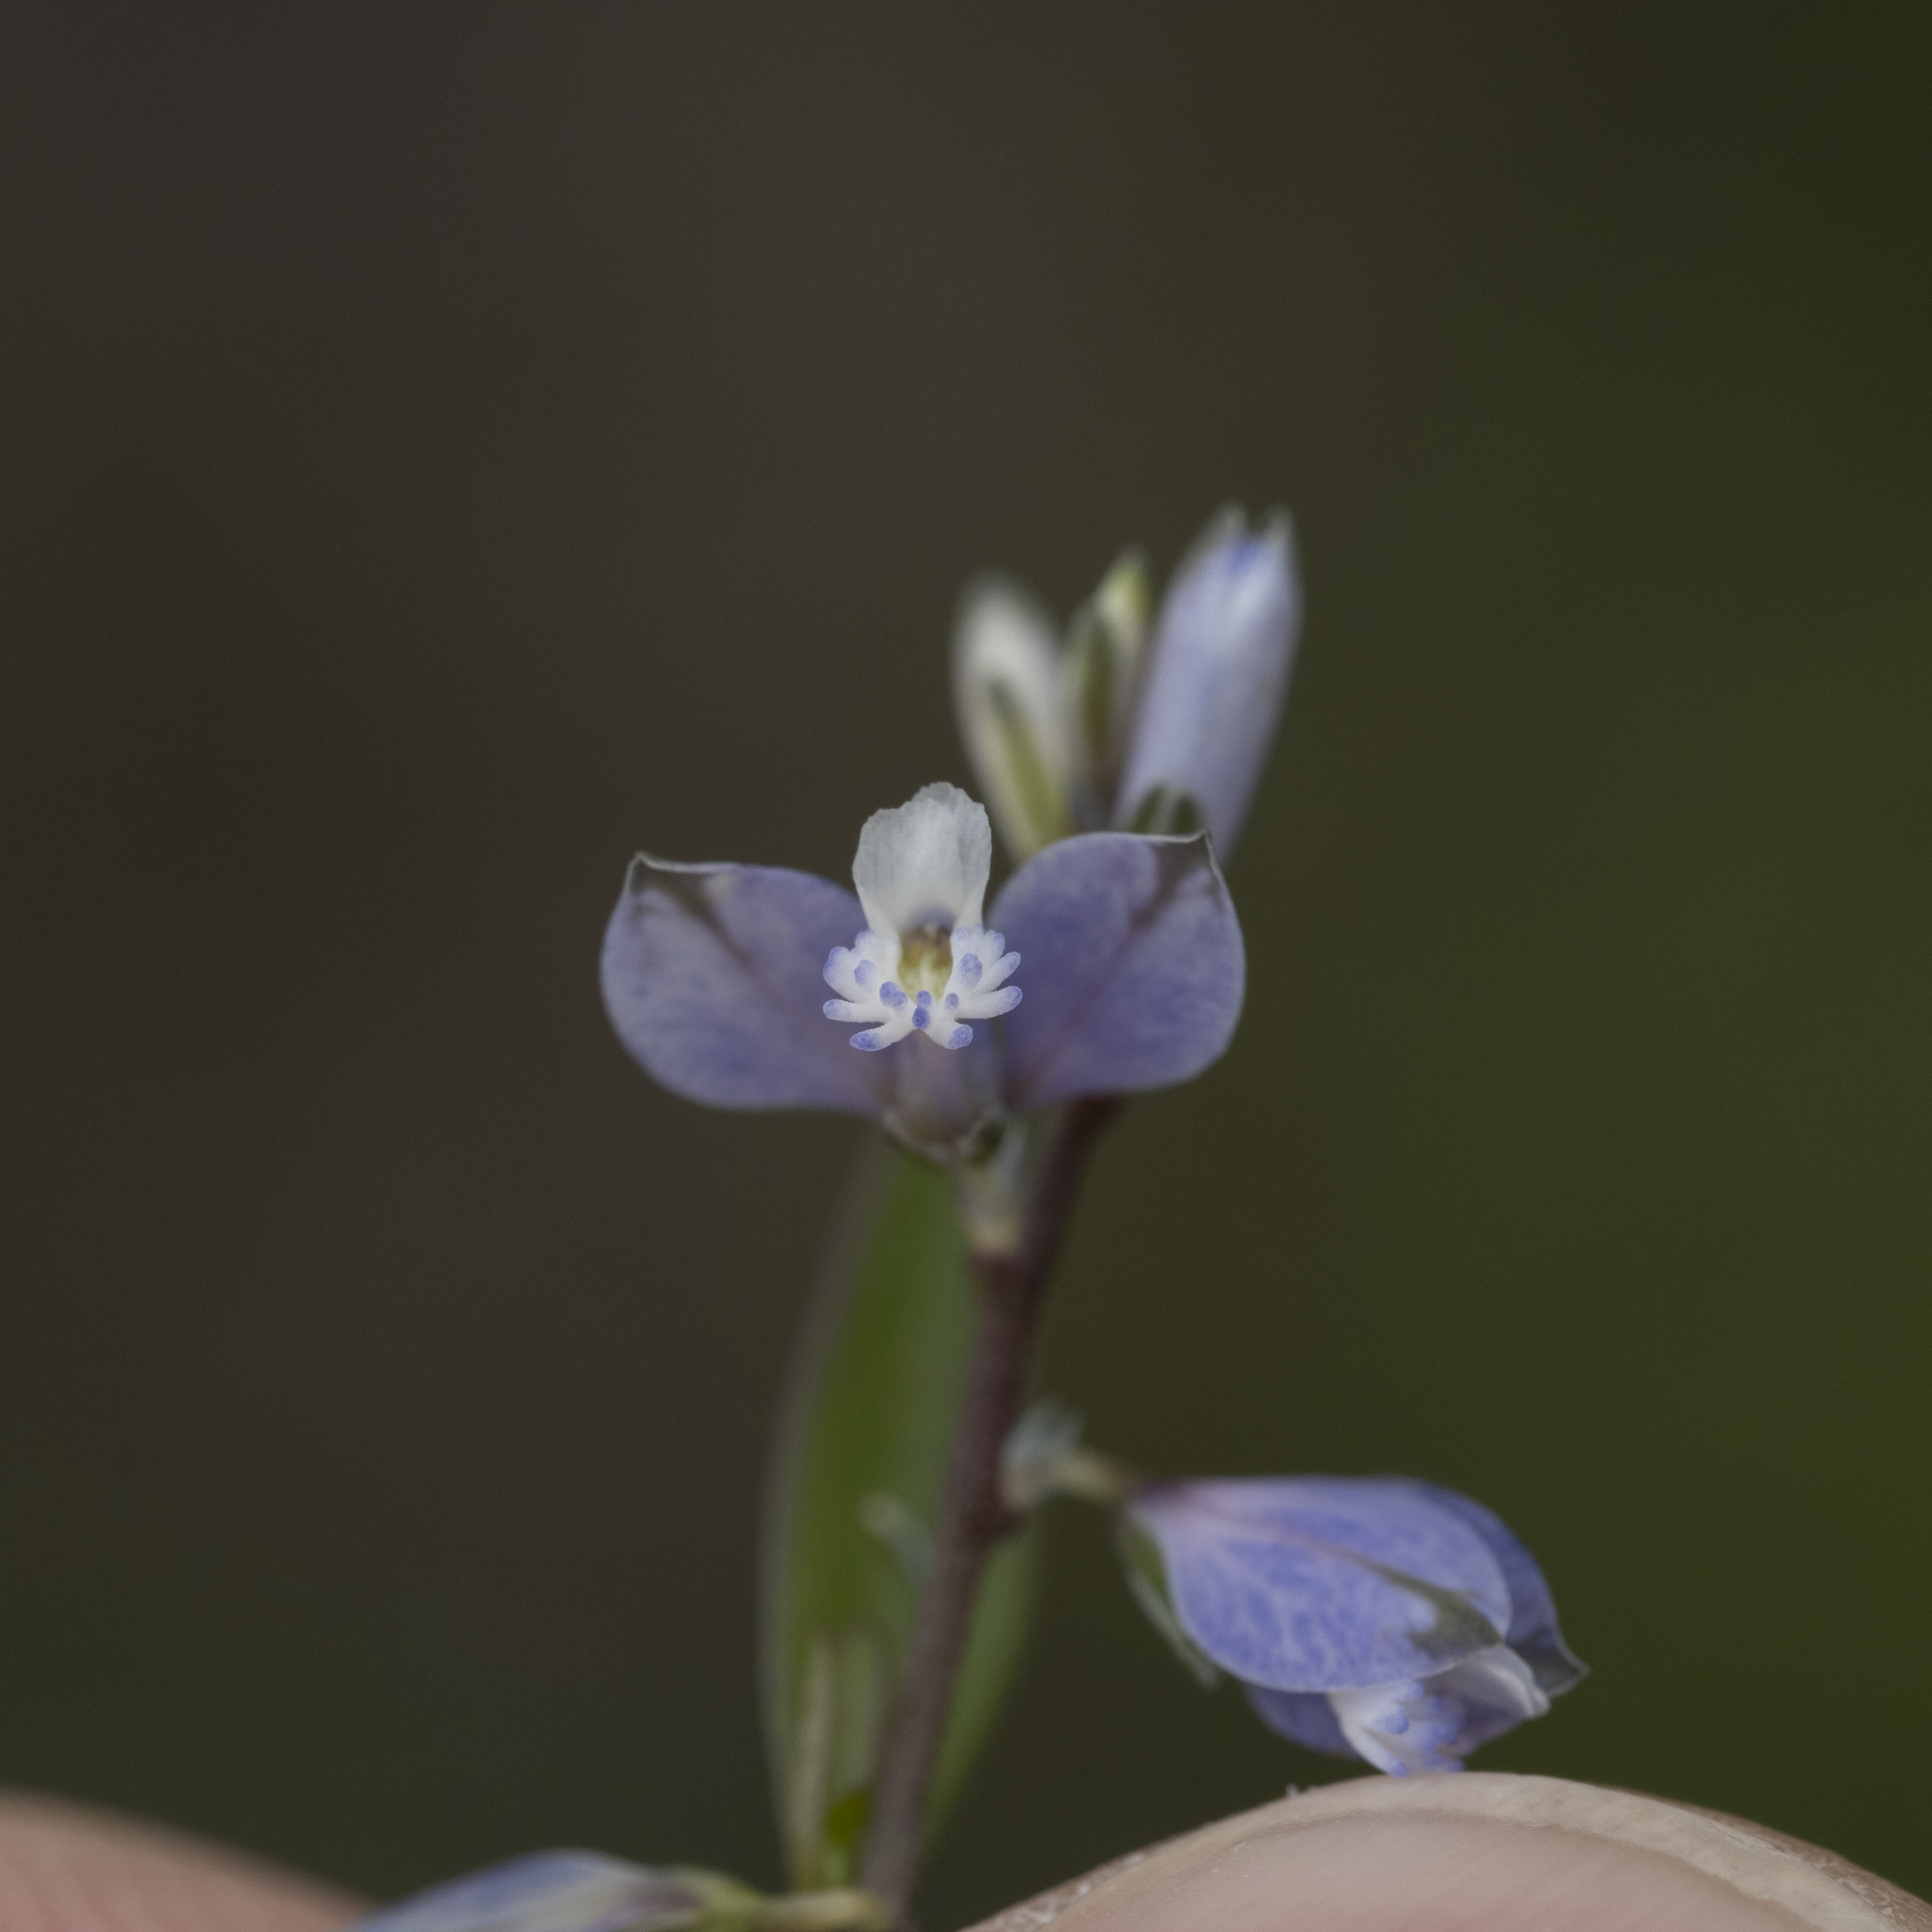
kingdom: Plantae
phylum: Tracheophyta
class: Magnoliopsida
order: Fabales
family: Polygalaceae
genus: Polygala
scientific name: Polygala serpyllifolia
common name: Heath milkwort
